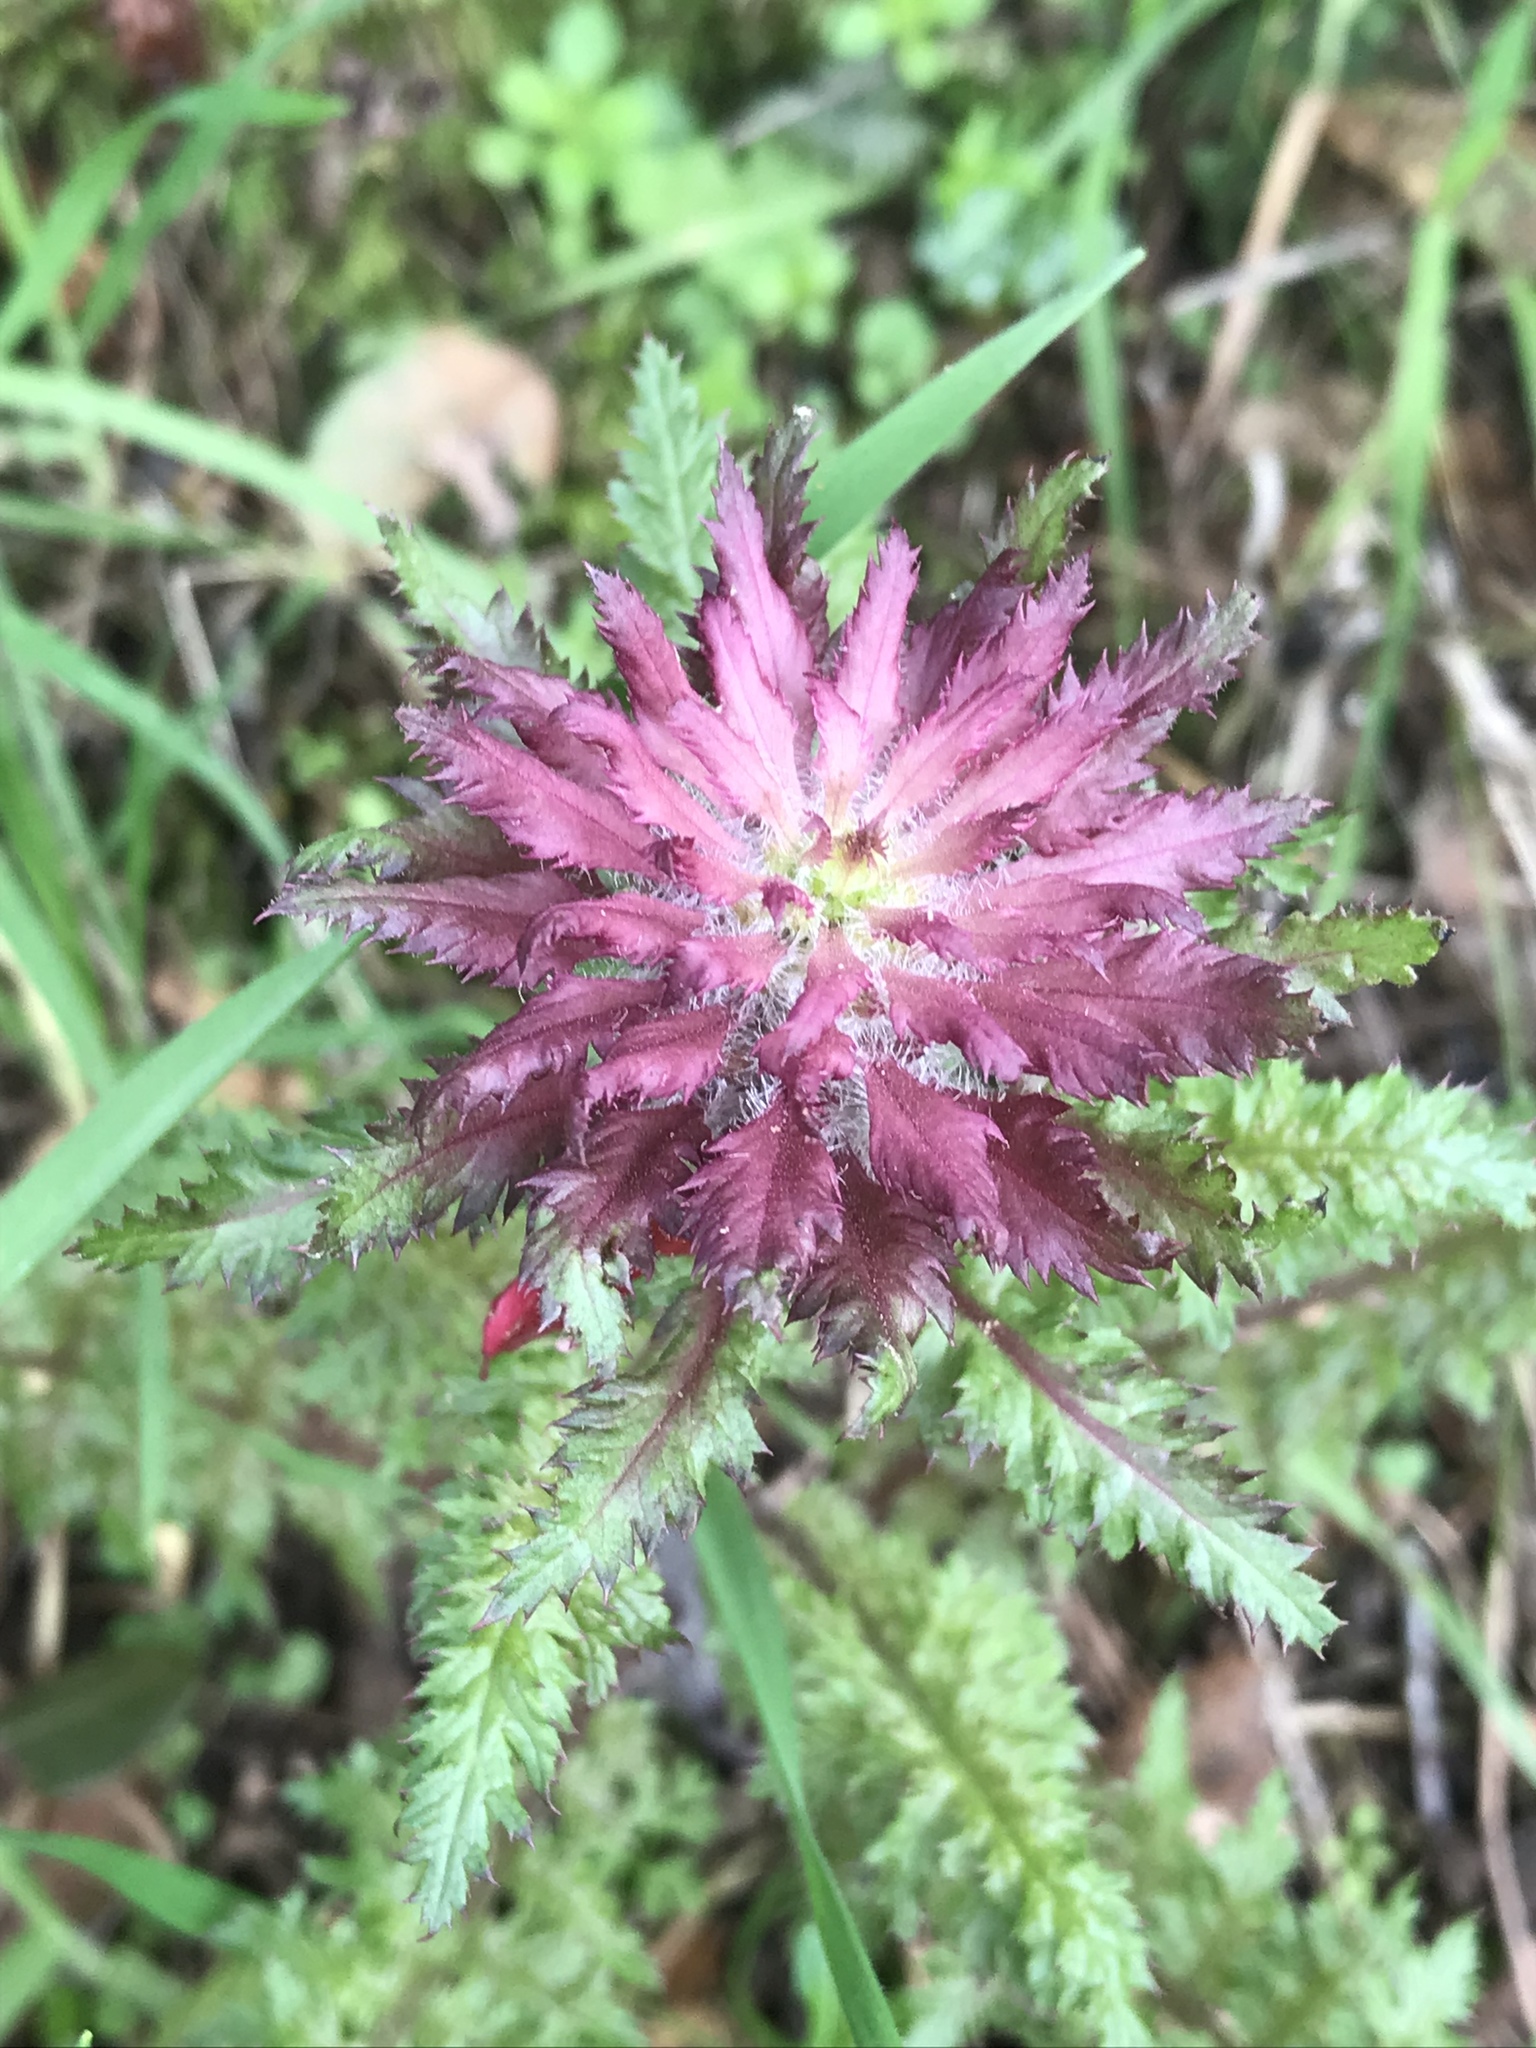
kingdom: Plantae
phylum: Tracheophyta
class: Magnoliopsida
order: Lamiales
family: Orobanchaceae
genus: Pedicularis
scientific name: Pedicularis densiflora
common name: Indian warrior
